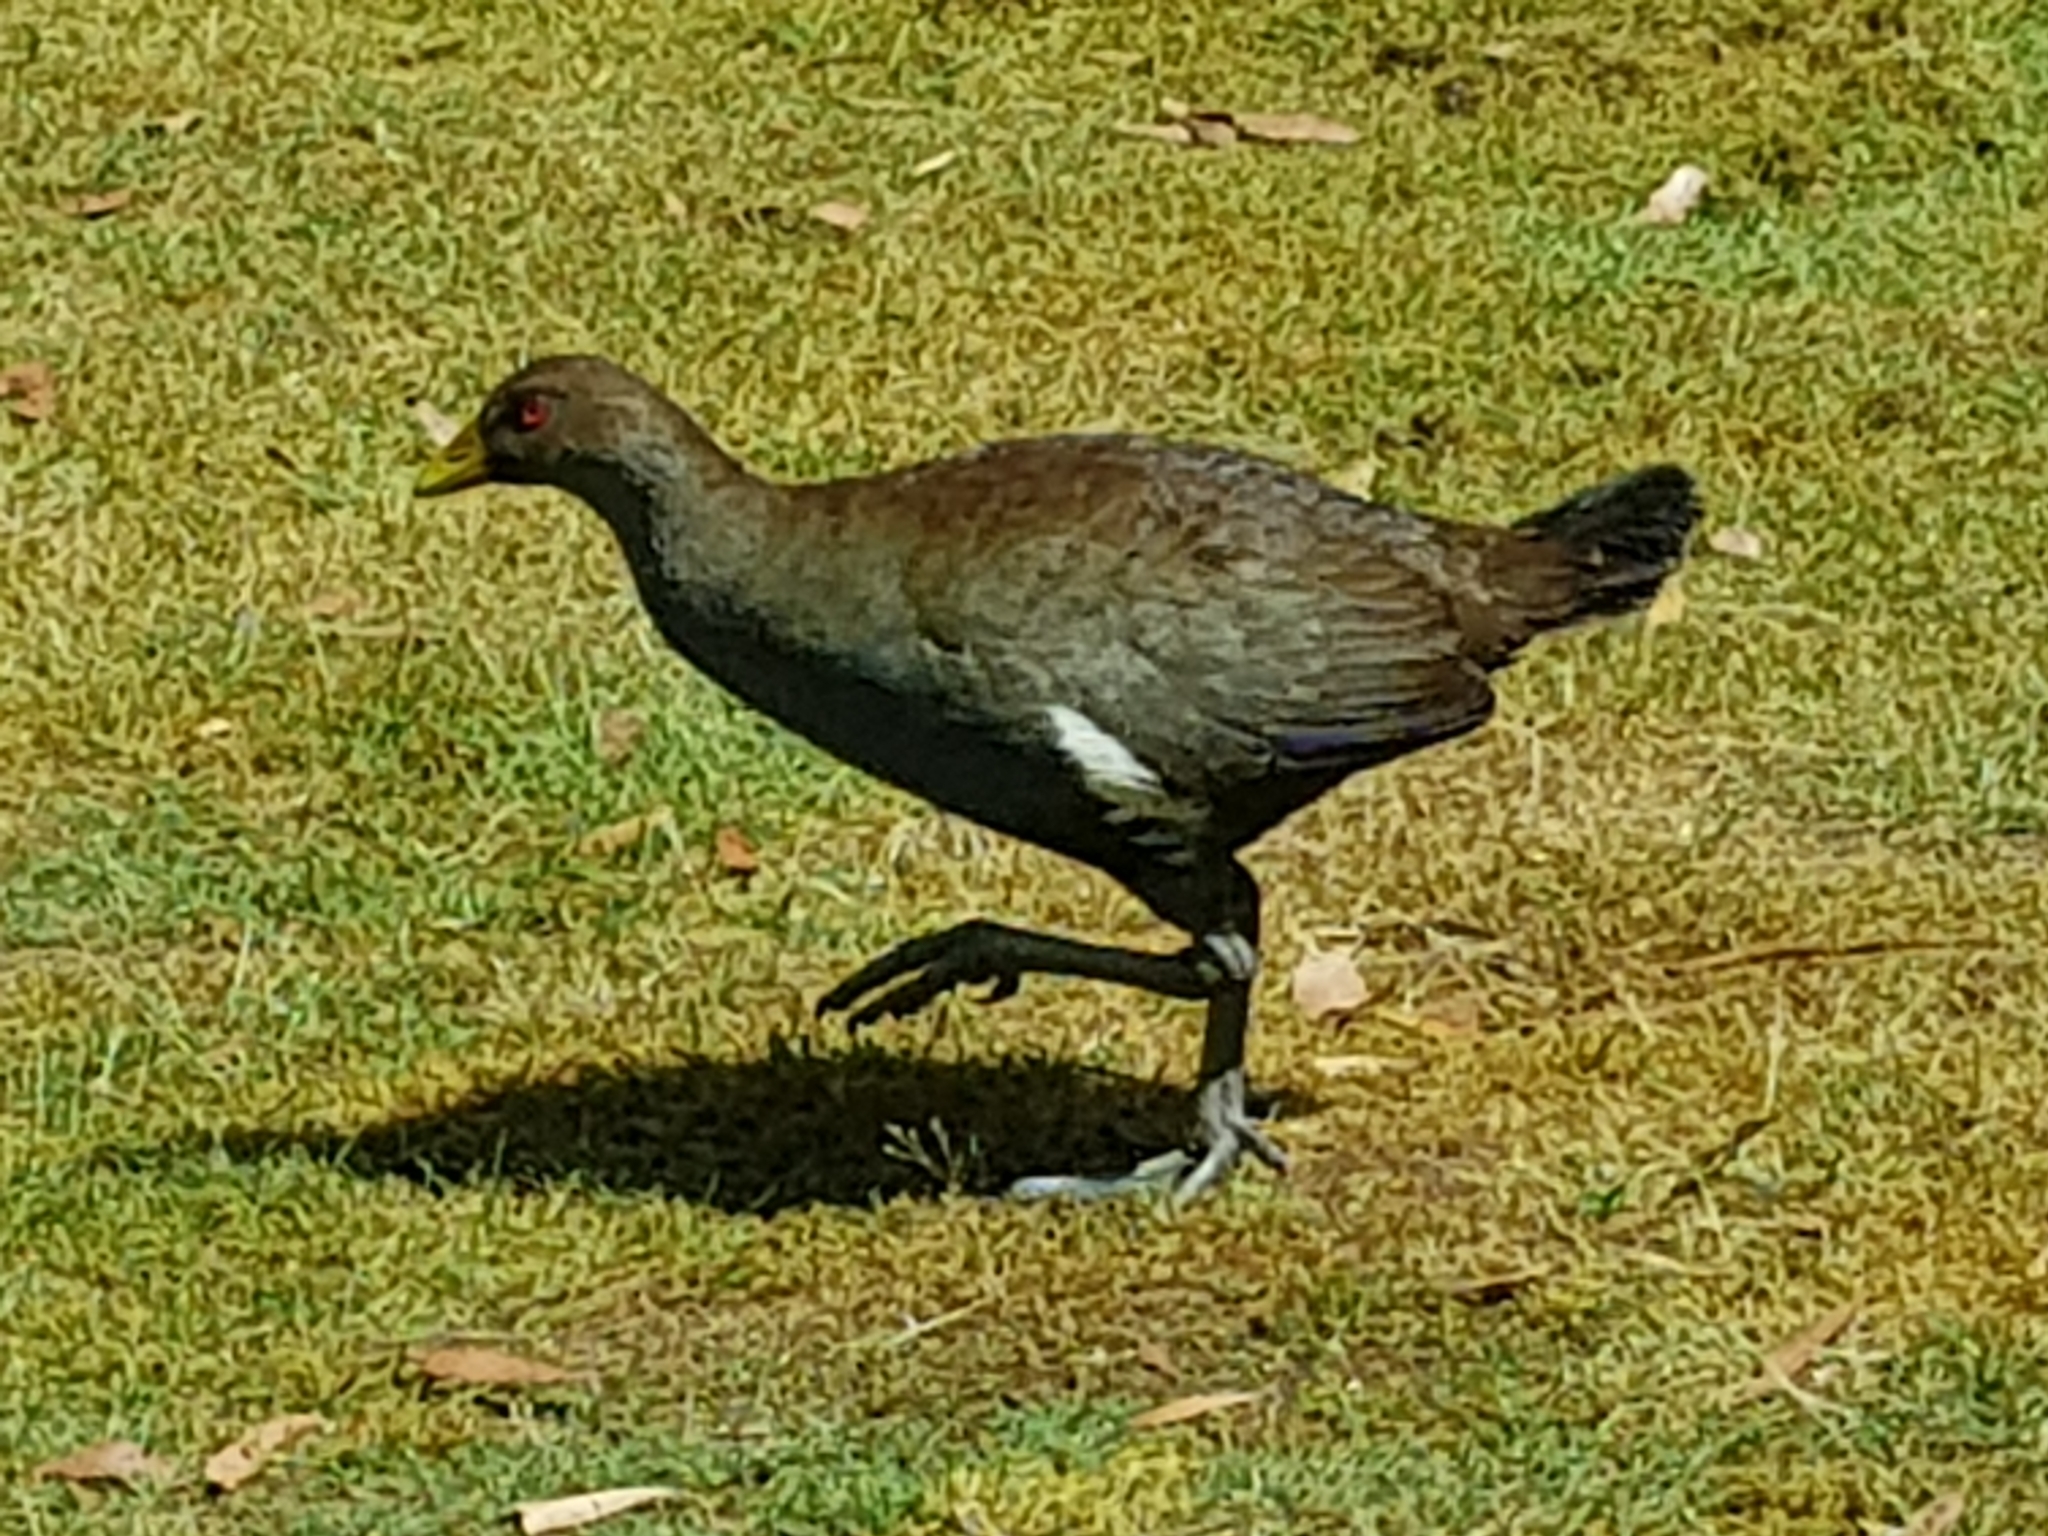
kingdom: Animalia
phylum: Chordata
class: Aves
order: Gruiformes
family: Rallidae
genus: Gallinula
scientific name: Gallinula mortierii
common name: Tasmanian nativehen
